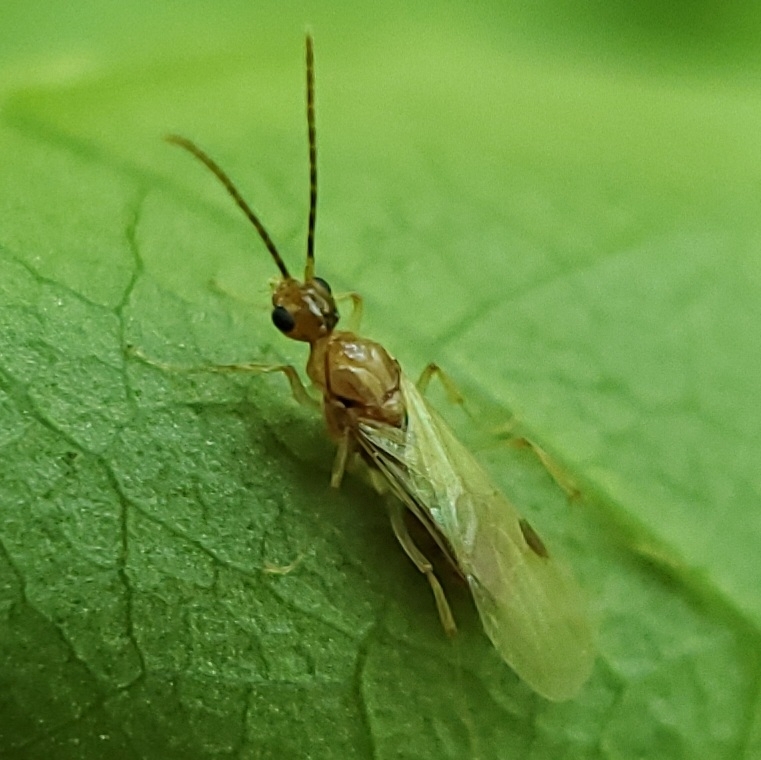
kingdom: Animalia
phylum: Arthropoda
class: Insecta
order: Hymenoptera
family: Formicidae
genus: Pachycondyla
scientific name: Pachycondyla chinensis
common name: Asian needle ant
